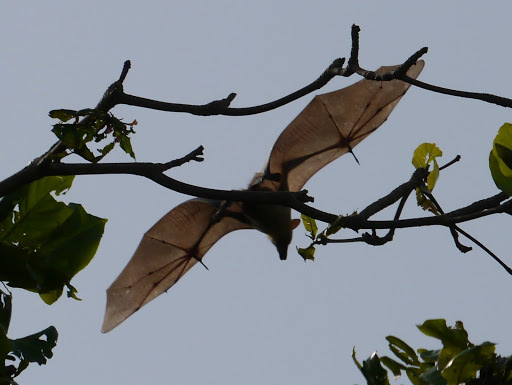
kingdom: Animalia
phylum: Chordata
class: Mammalia
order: Chiroptera
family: Pteropodidae
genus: Eidolon
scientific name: Eidolon helvum
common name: Straw-colored fruit bat
